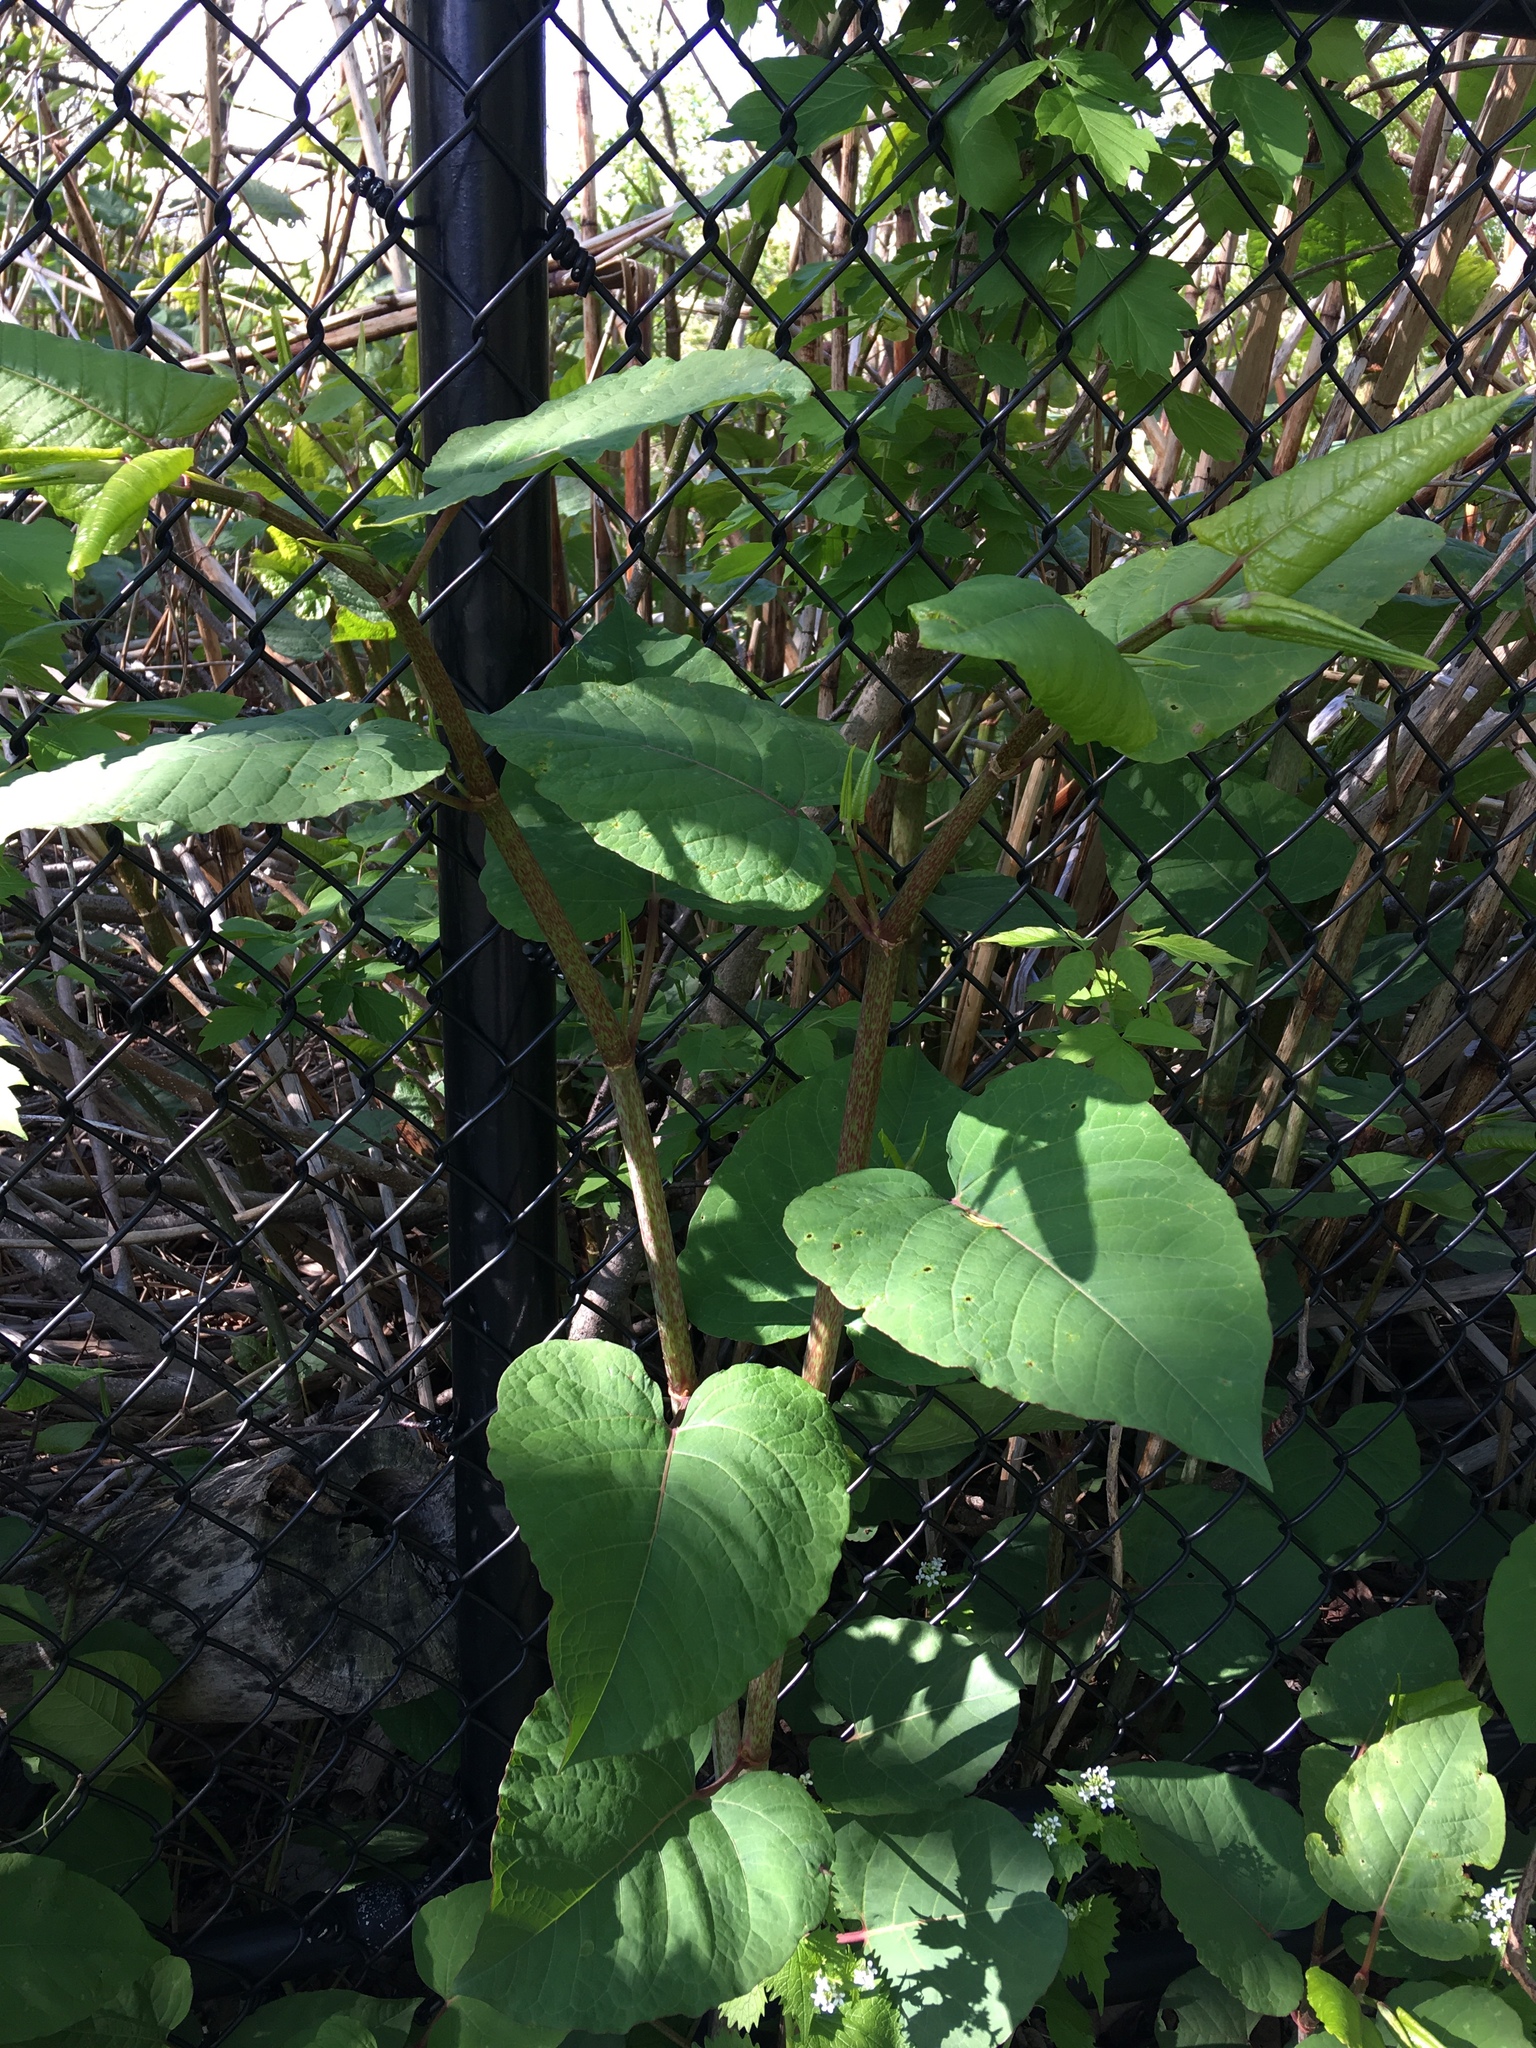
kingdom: Plantae
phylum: Tracheophyta
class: Magnoliopsida
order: Caryophyllales
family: Polygonaceae
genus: Reynoutria
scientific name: Reynoutria sachalinensis
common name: Giant knotweed
